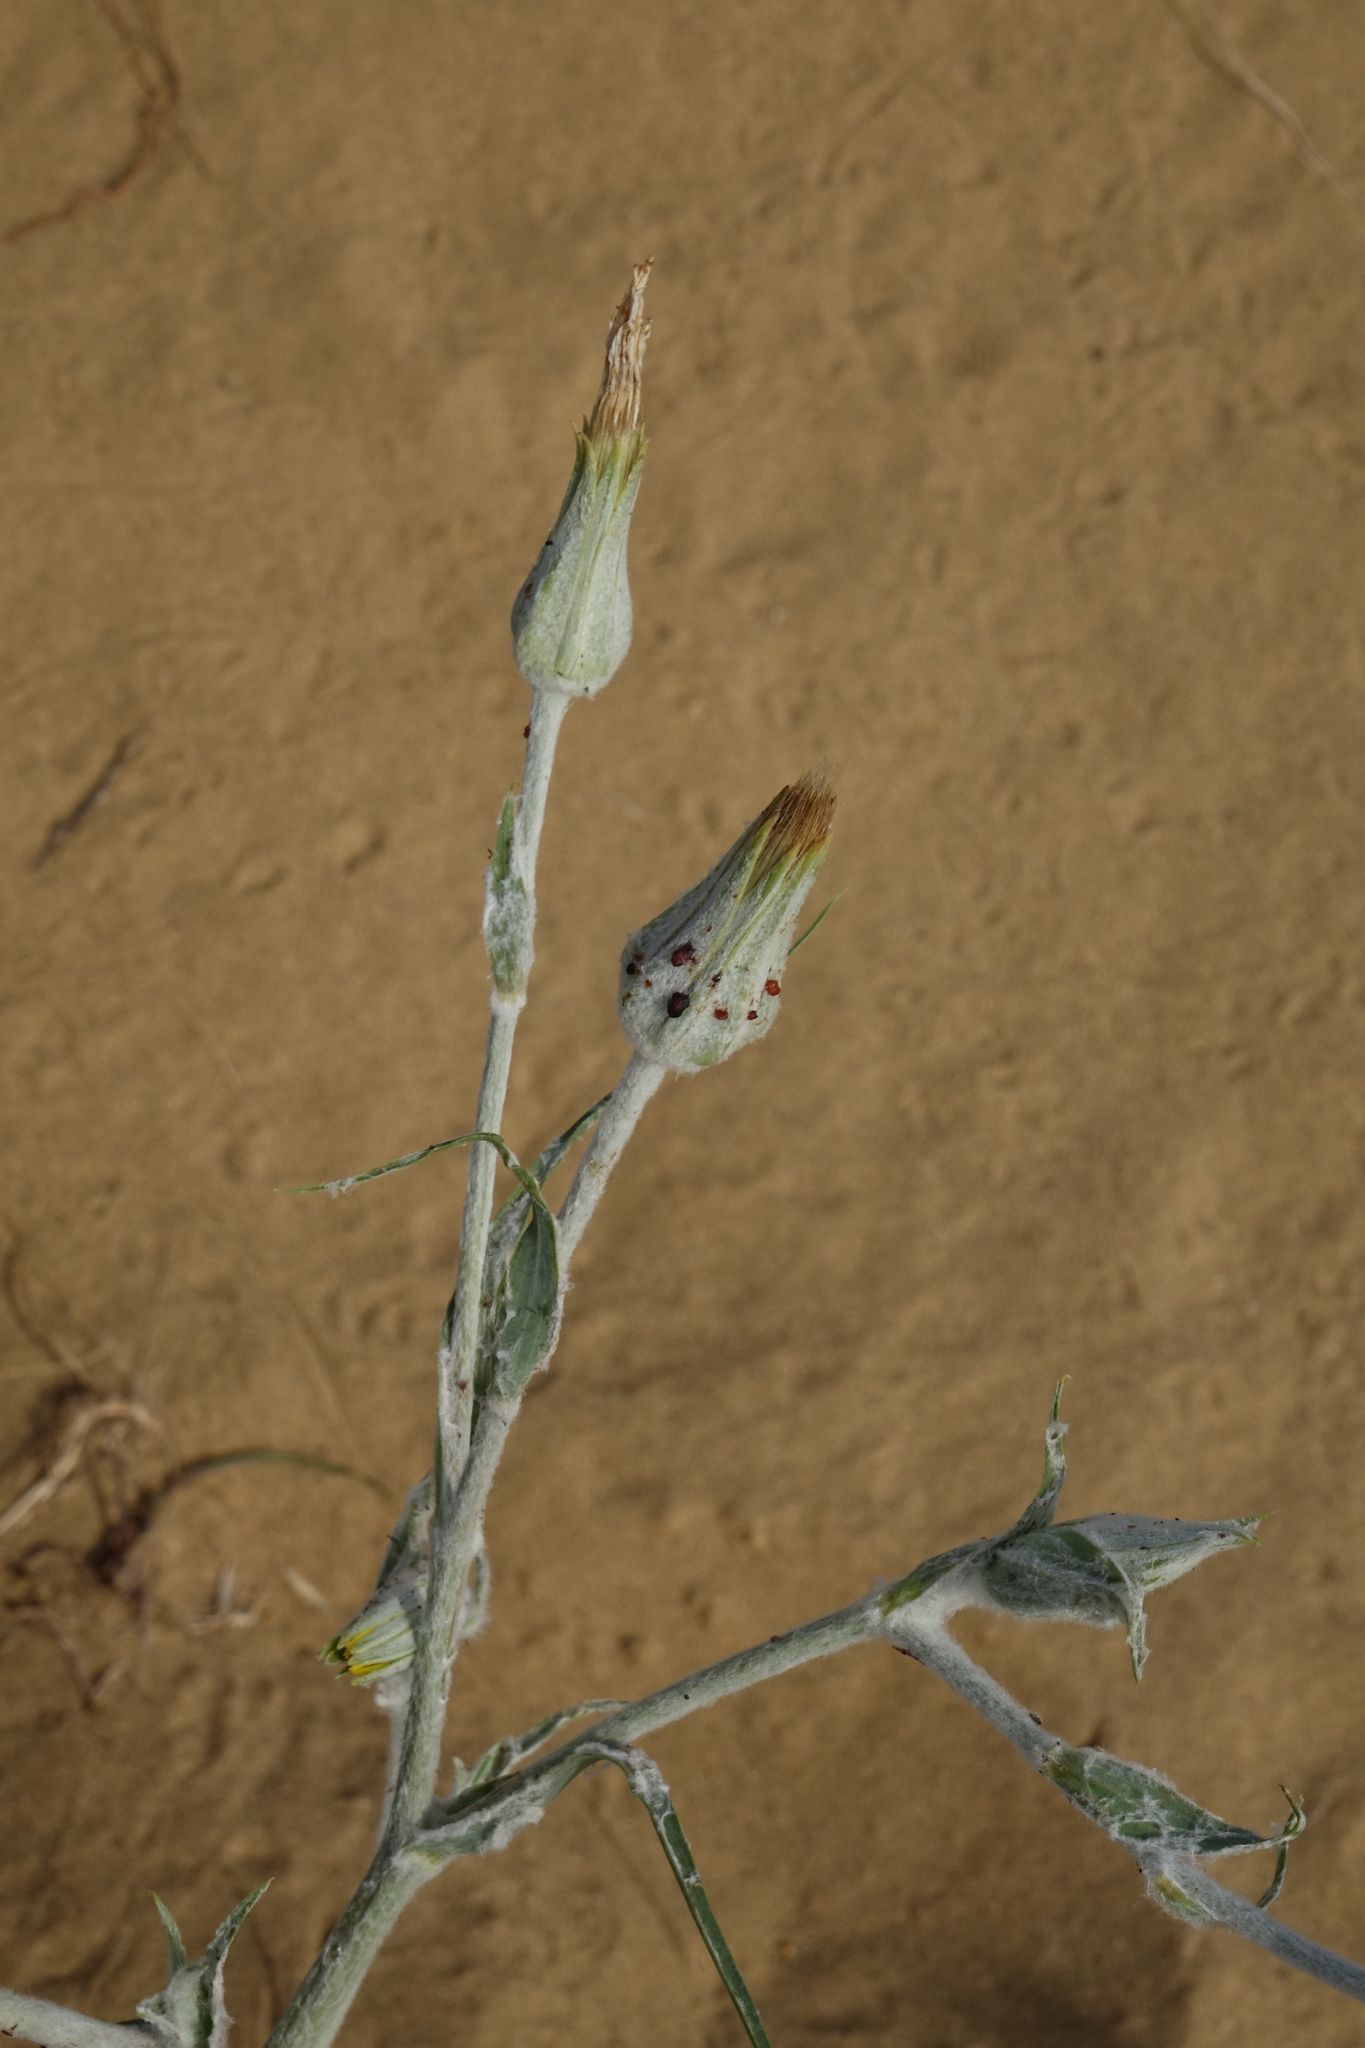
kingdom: Plantae
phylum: Tracheophyta
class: Magnoliopsida
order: Asterales
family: Asteraceae
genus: Tragopogon
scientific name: Tragopogon ruthenicus
